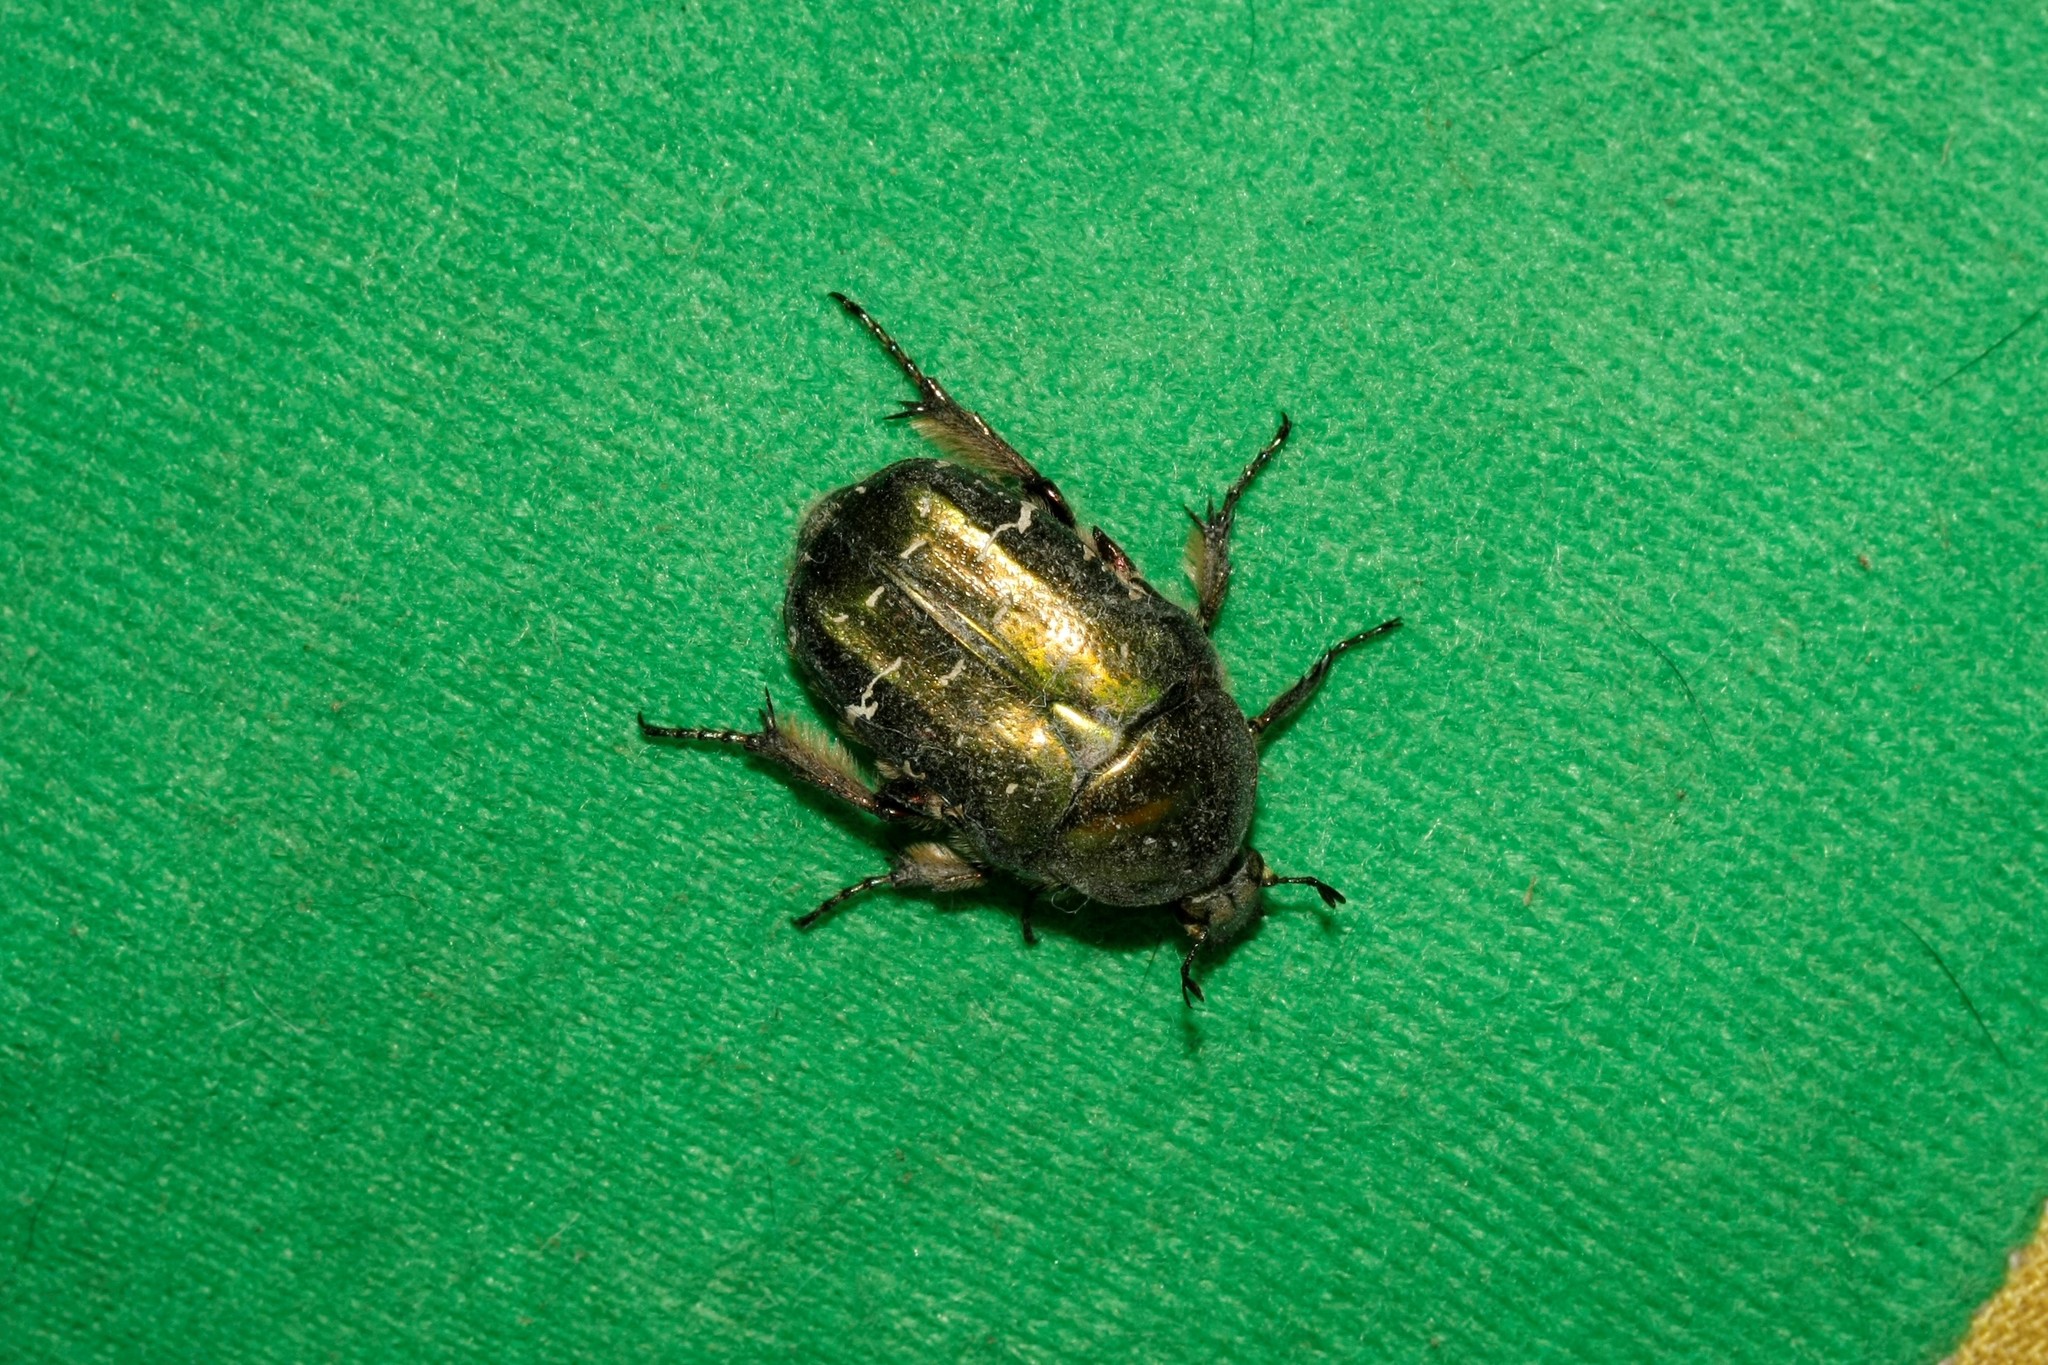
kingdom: Animalia
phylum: Arthropoda
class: Insecta
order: Coleoptera
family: Scarabaeidae
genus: Cetonia
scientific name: Cetonia aurata
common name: Rose chafer
